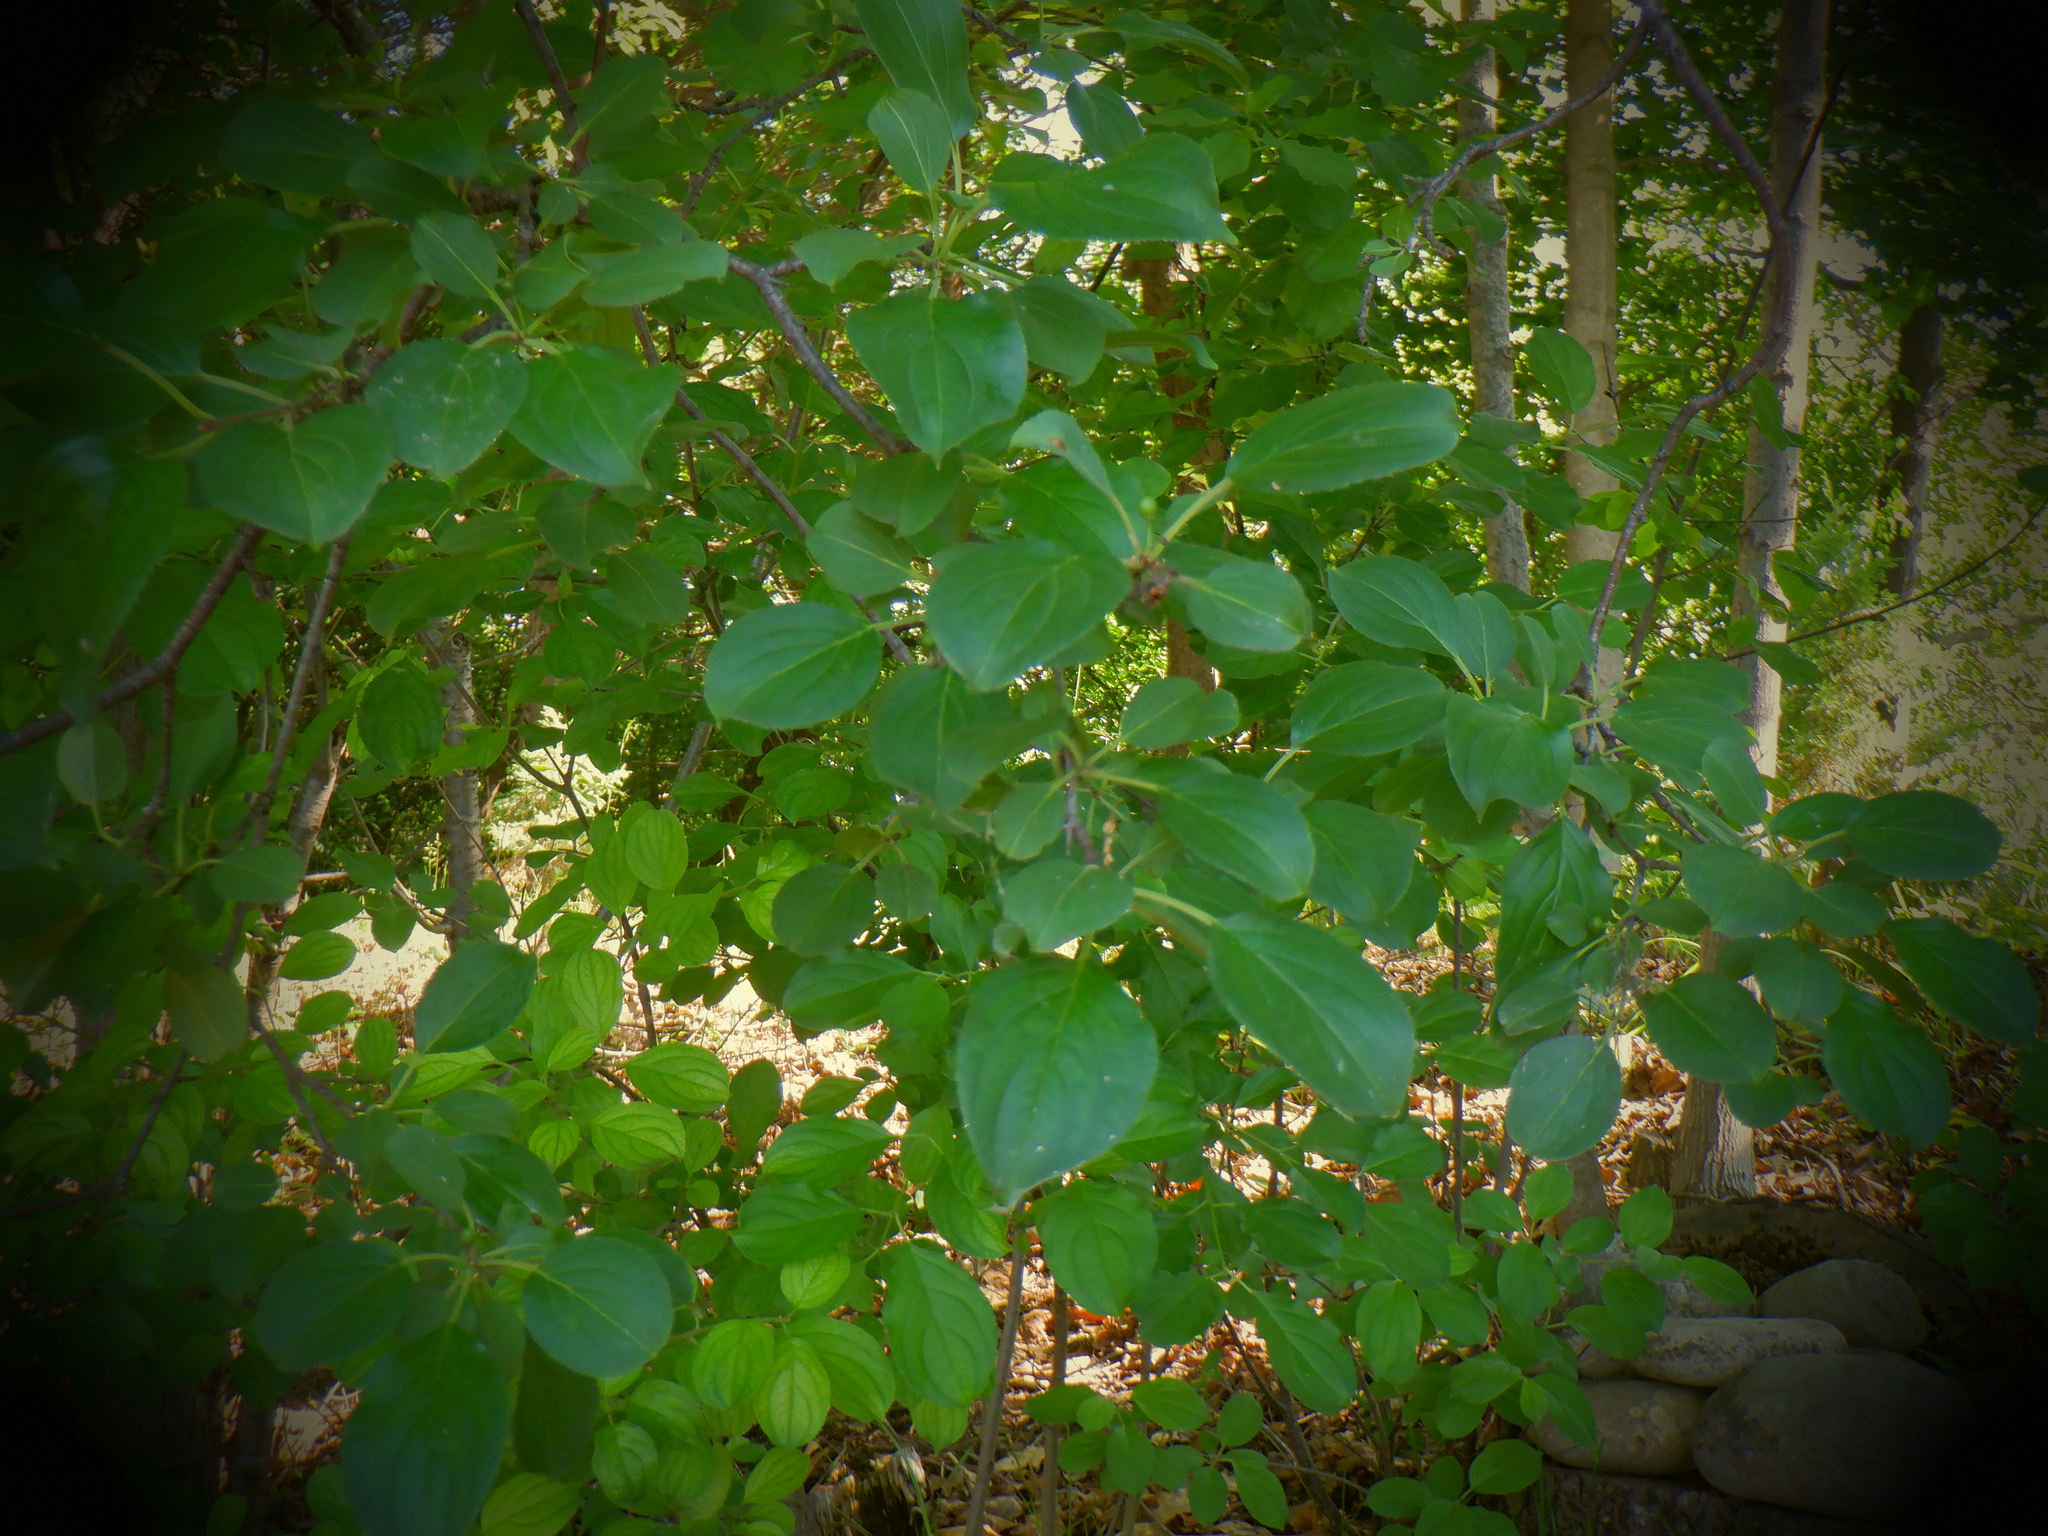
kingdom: Plantae
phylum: Tracheophyta
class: Magnoliopsida
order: Rosales
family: Rhamnaceae
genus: Rhamnus
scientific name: Rhamnus cathartica
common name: Common buckthorn
